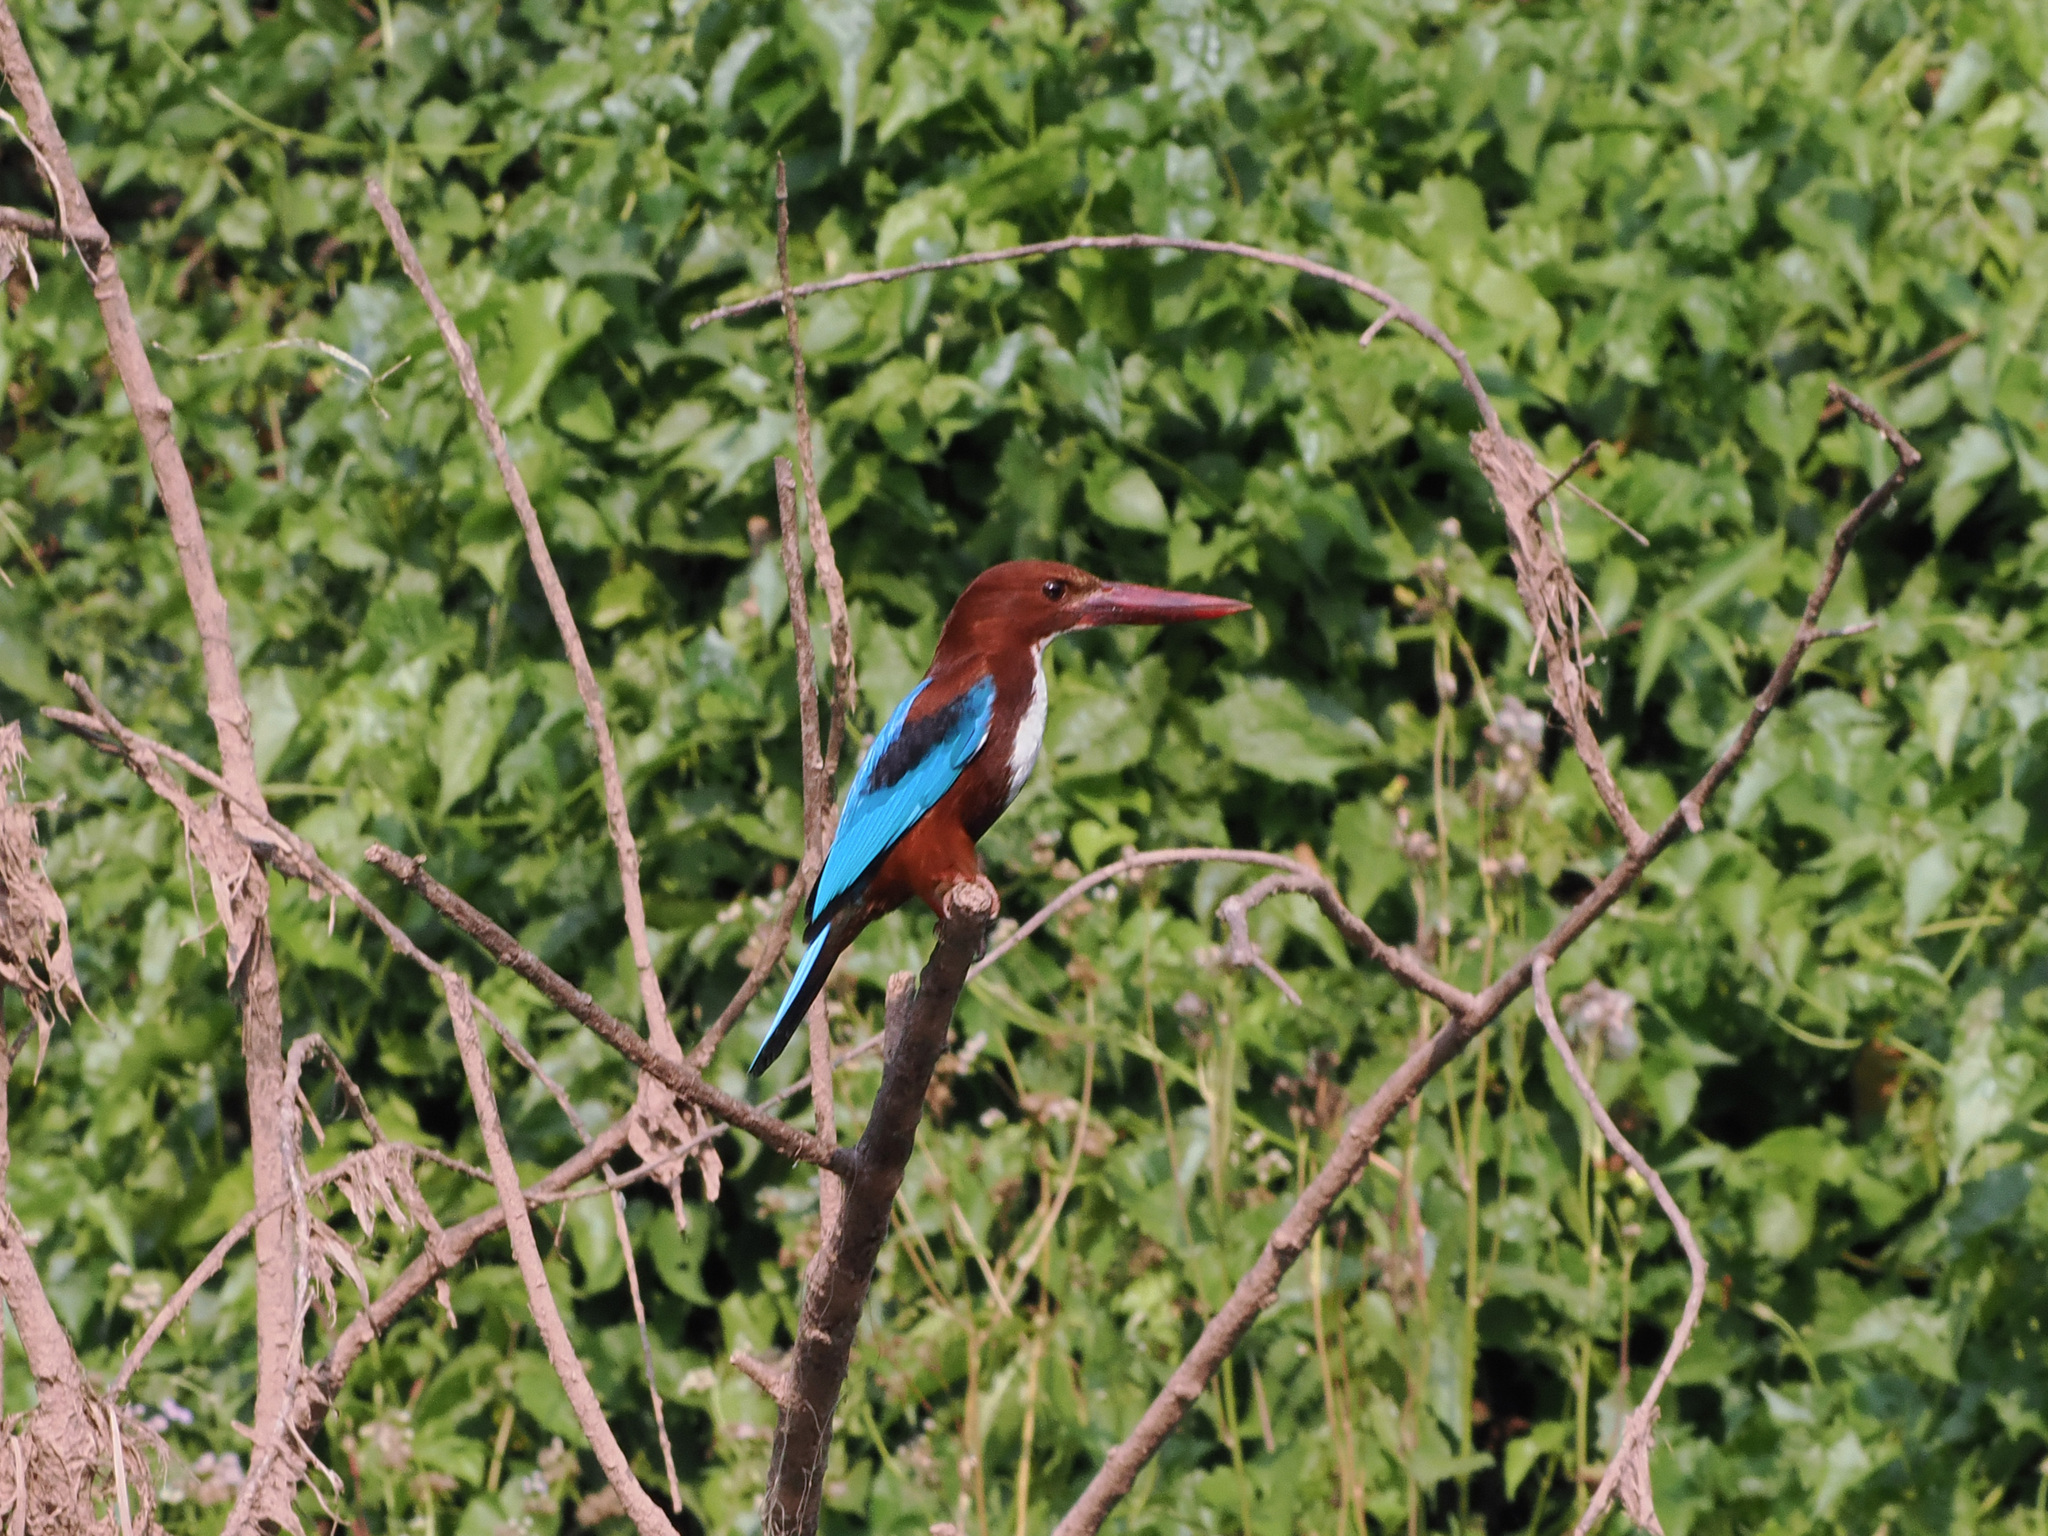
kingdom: Animalia
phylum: Chordata
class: Aves
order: Coraciiformes
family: Alcedinidae
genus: Halcyon
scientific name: Halcyon smyrnensis
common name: White-throated kingfisher
